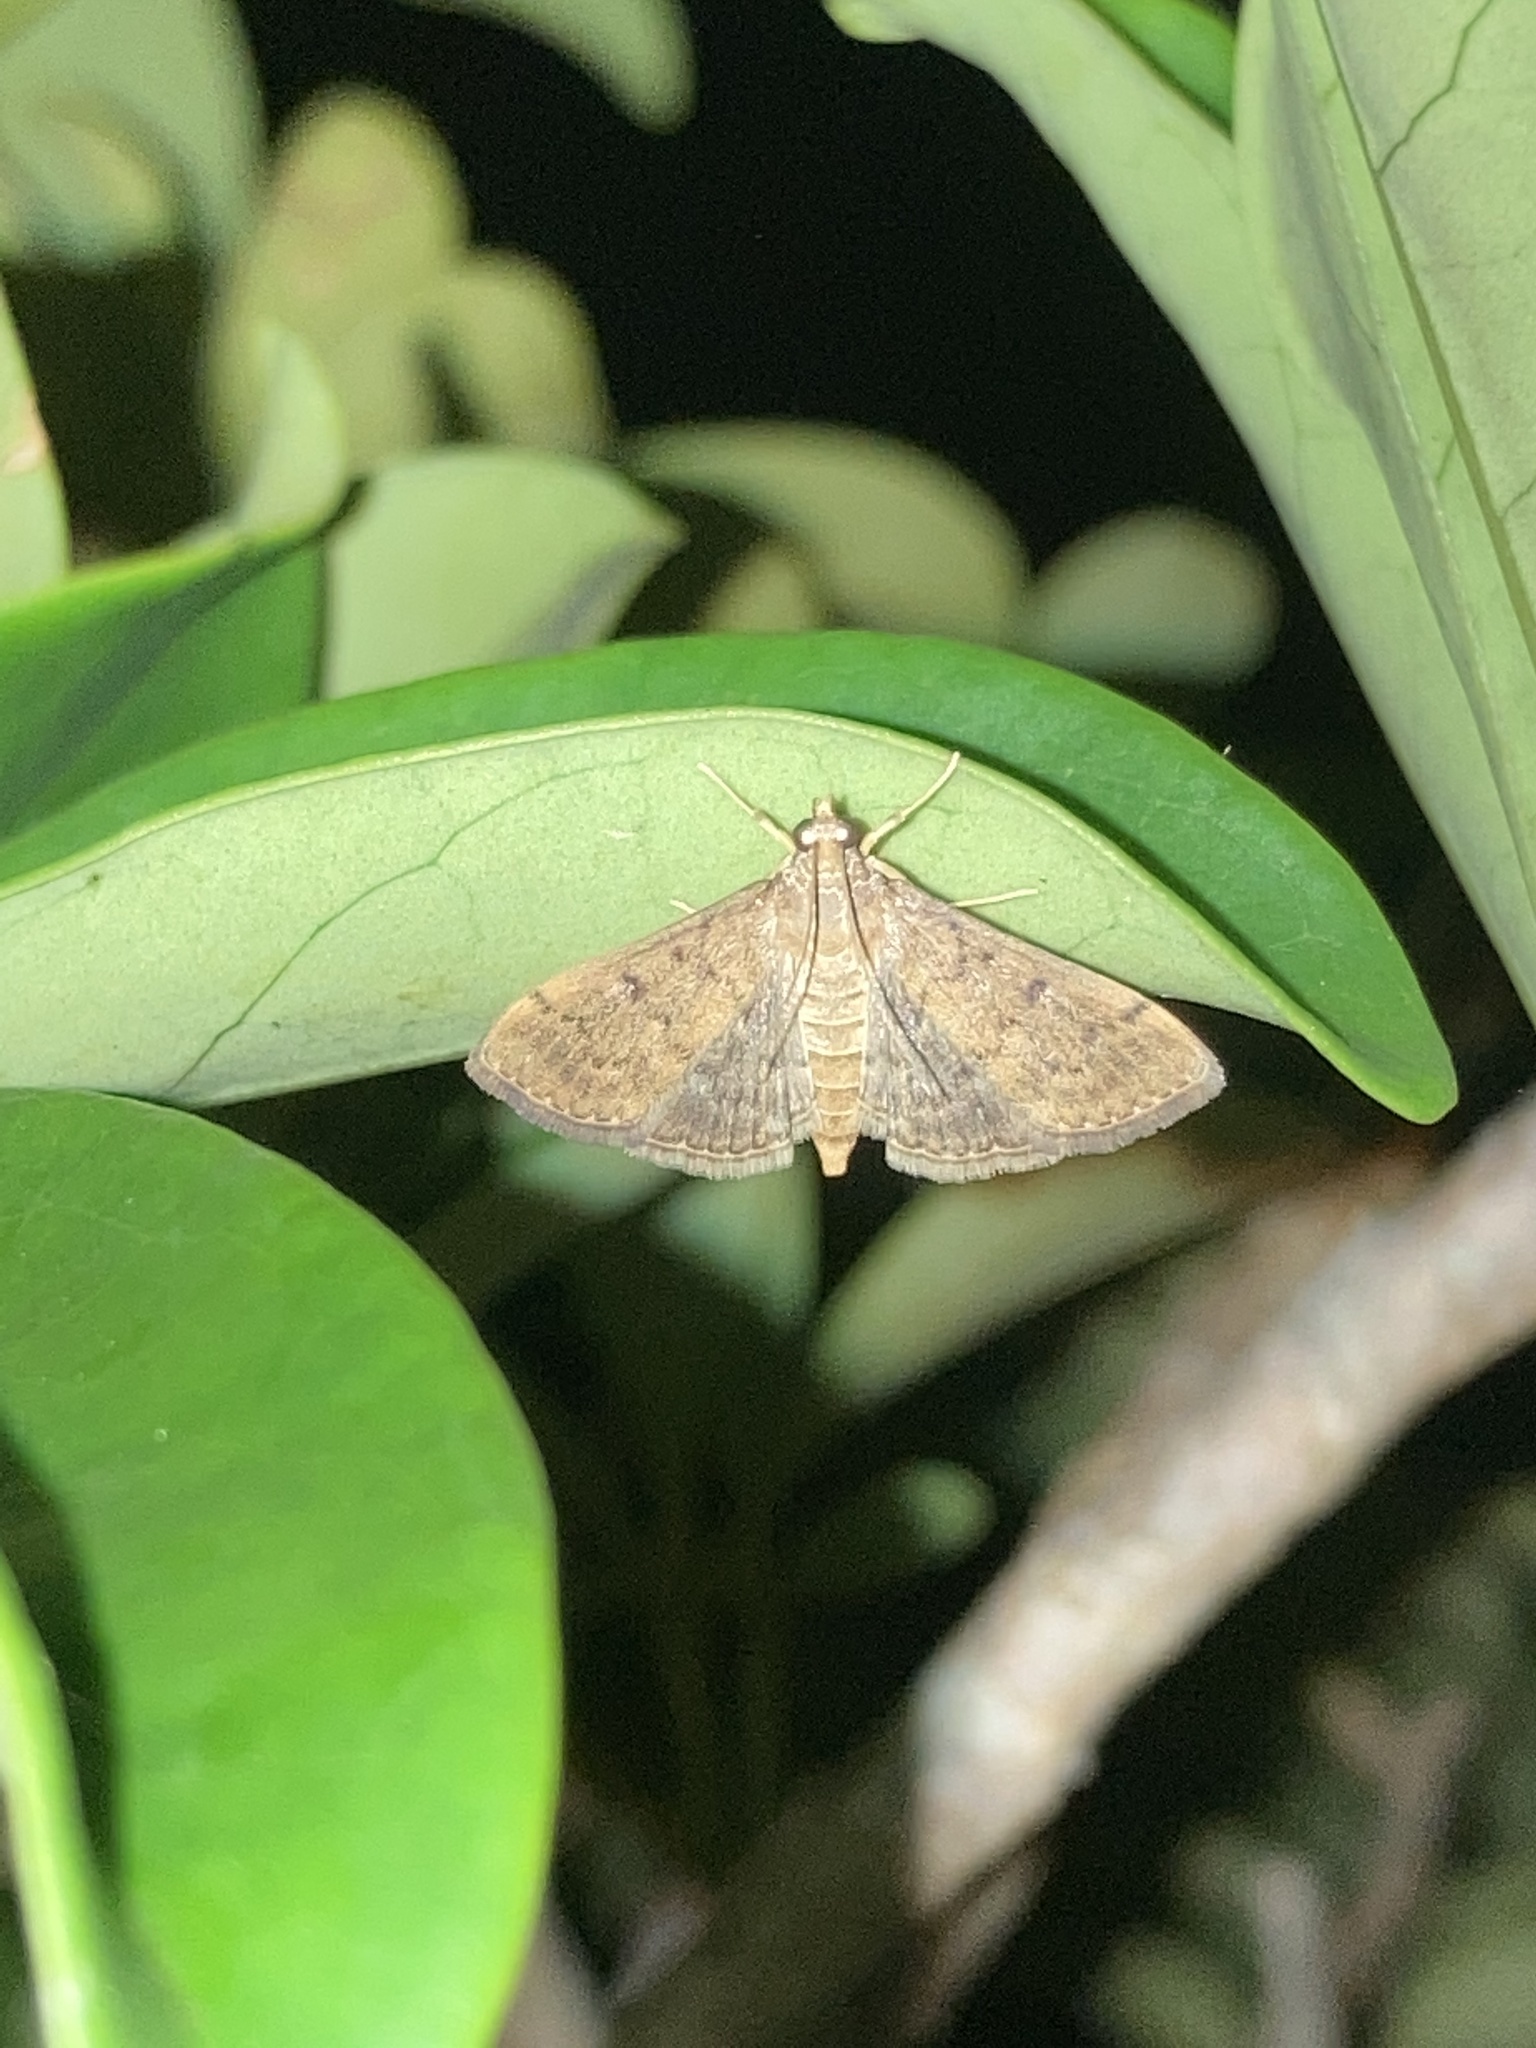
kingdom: Animalia
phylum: Arthropoda
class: Insecta
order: Lepidoptera
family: Crambidae
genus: Herpetogramma
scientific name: Herpetogramma phaeopteralis
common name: Dusky herpetogramma moth
